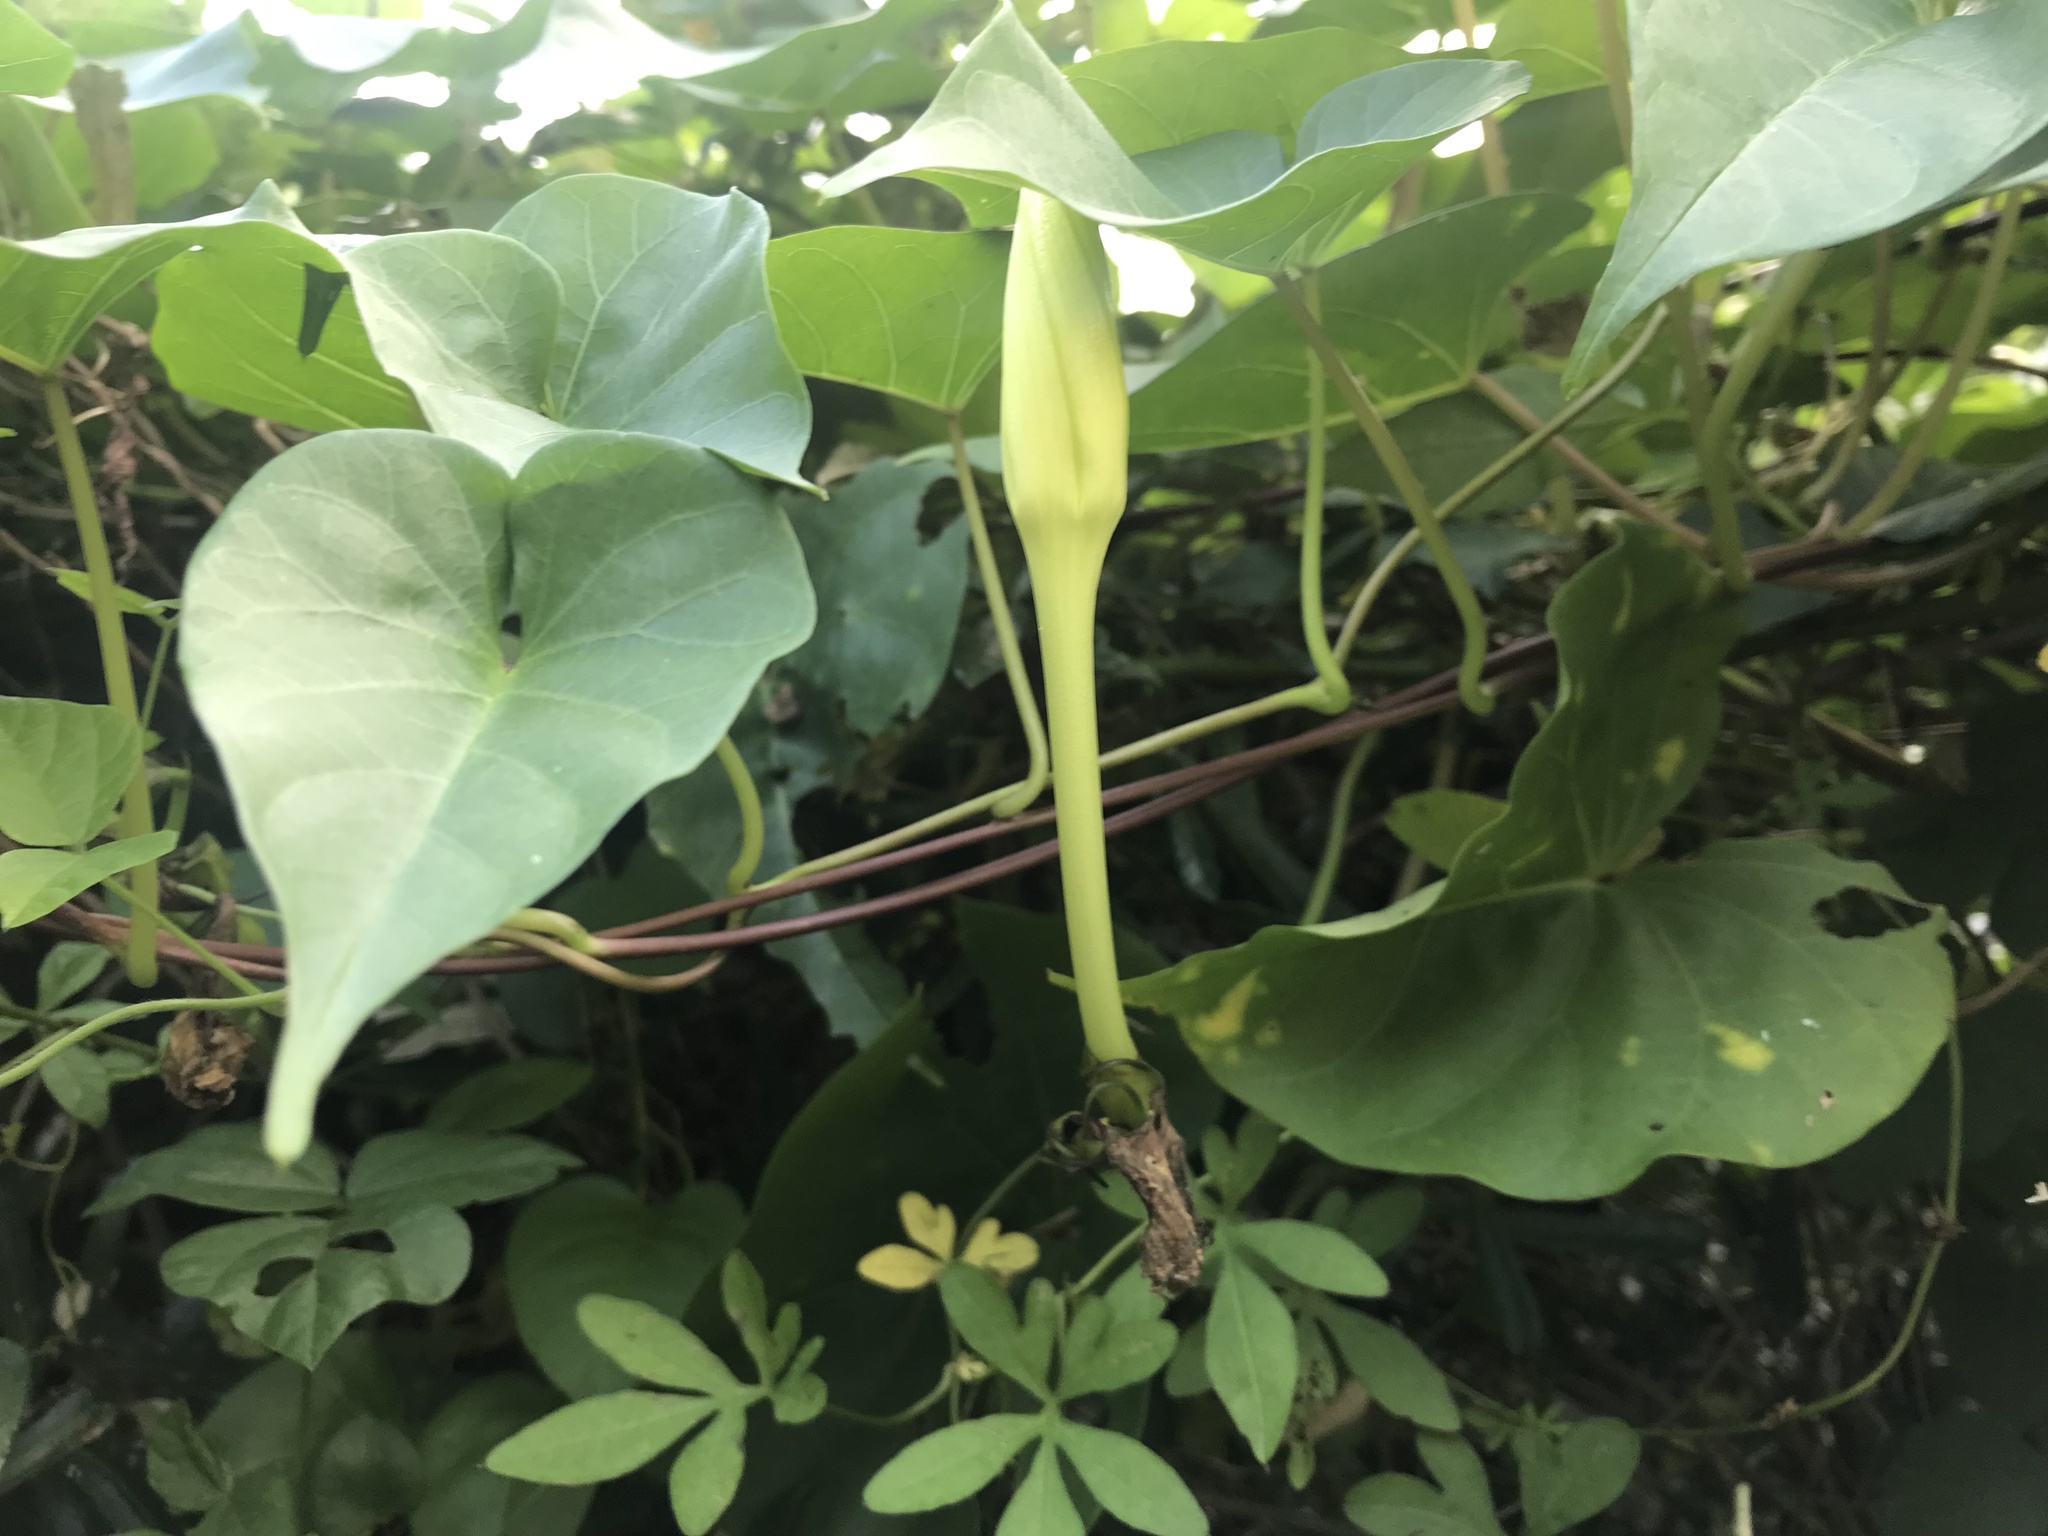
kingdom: Plantae
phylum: Tracheophyta
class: Magnoliopsida
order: Solanales
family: Convolvulaceae
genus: Ipomoea
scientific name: Ipomoea alba
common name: Moonflower
